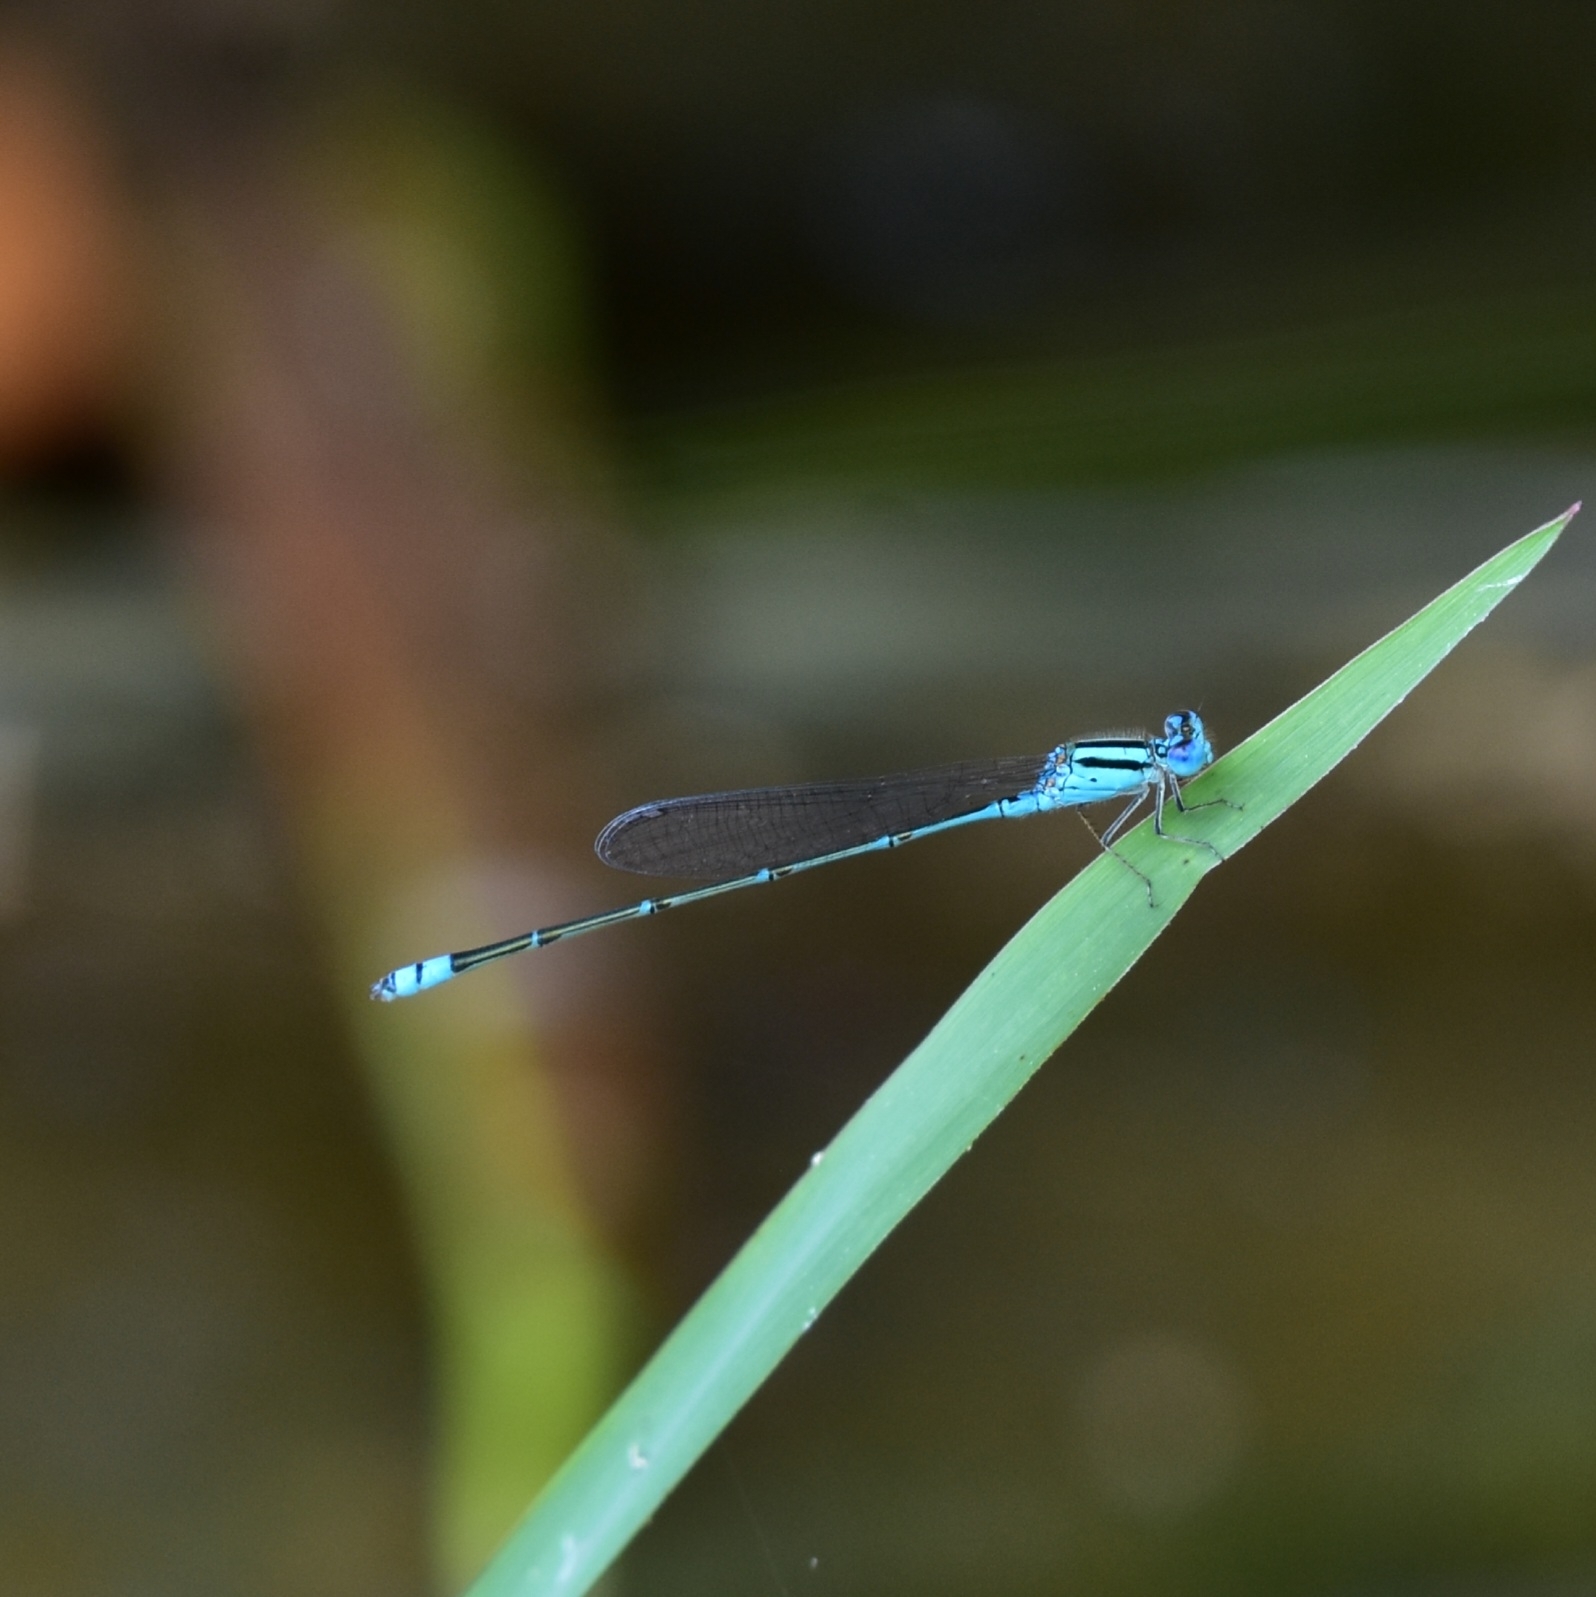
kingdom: Animalia
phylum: Arthropoda
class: Insecta
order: Odonata
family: Coenagrionidae
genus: Pseudagrion
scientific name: Pseudagrion microcephalum
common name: Blue riverdamsel
